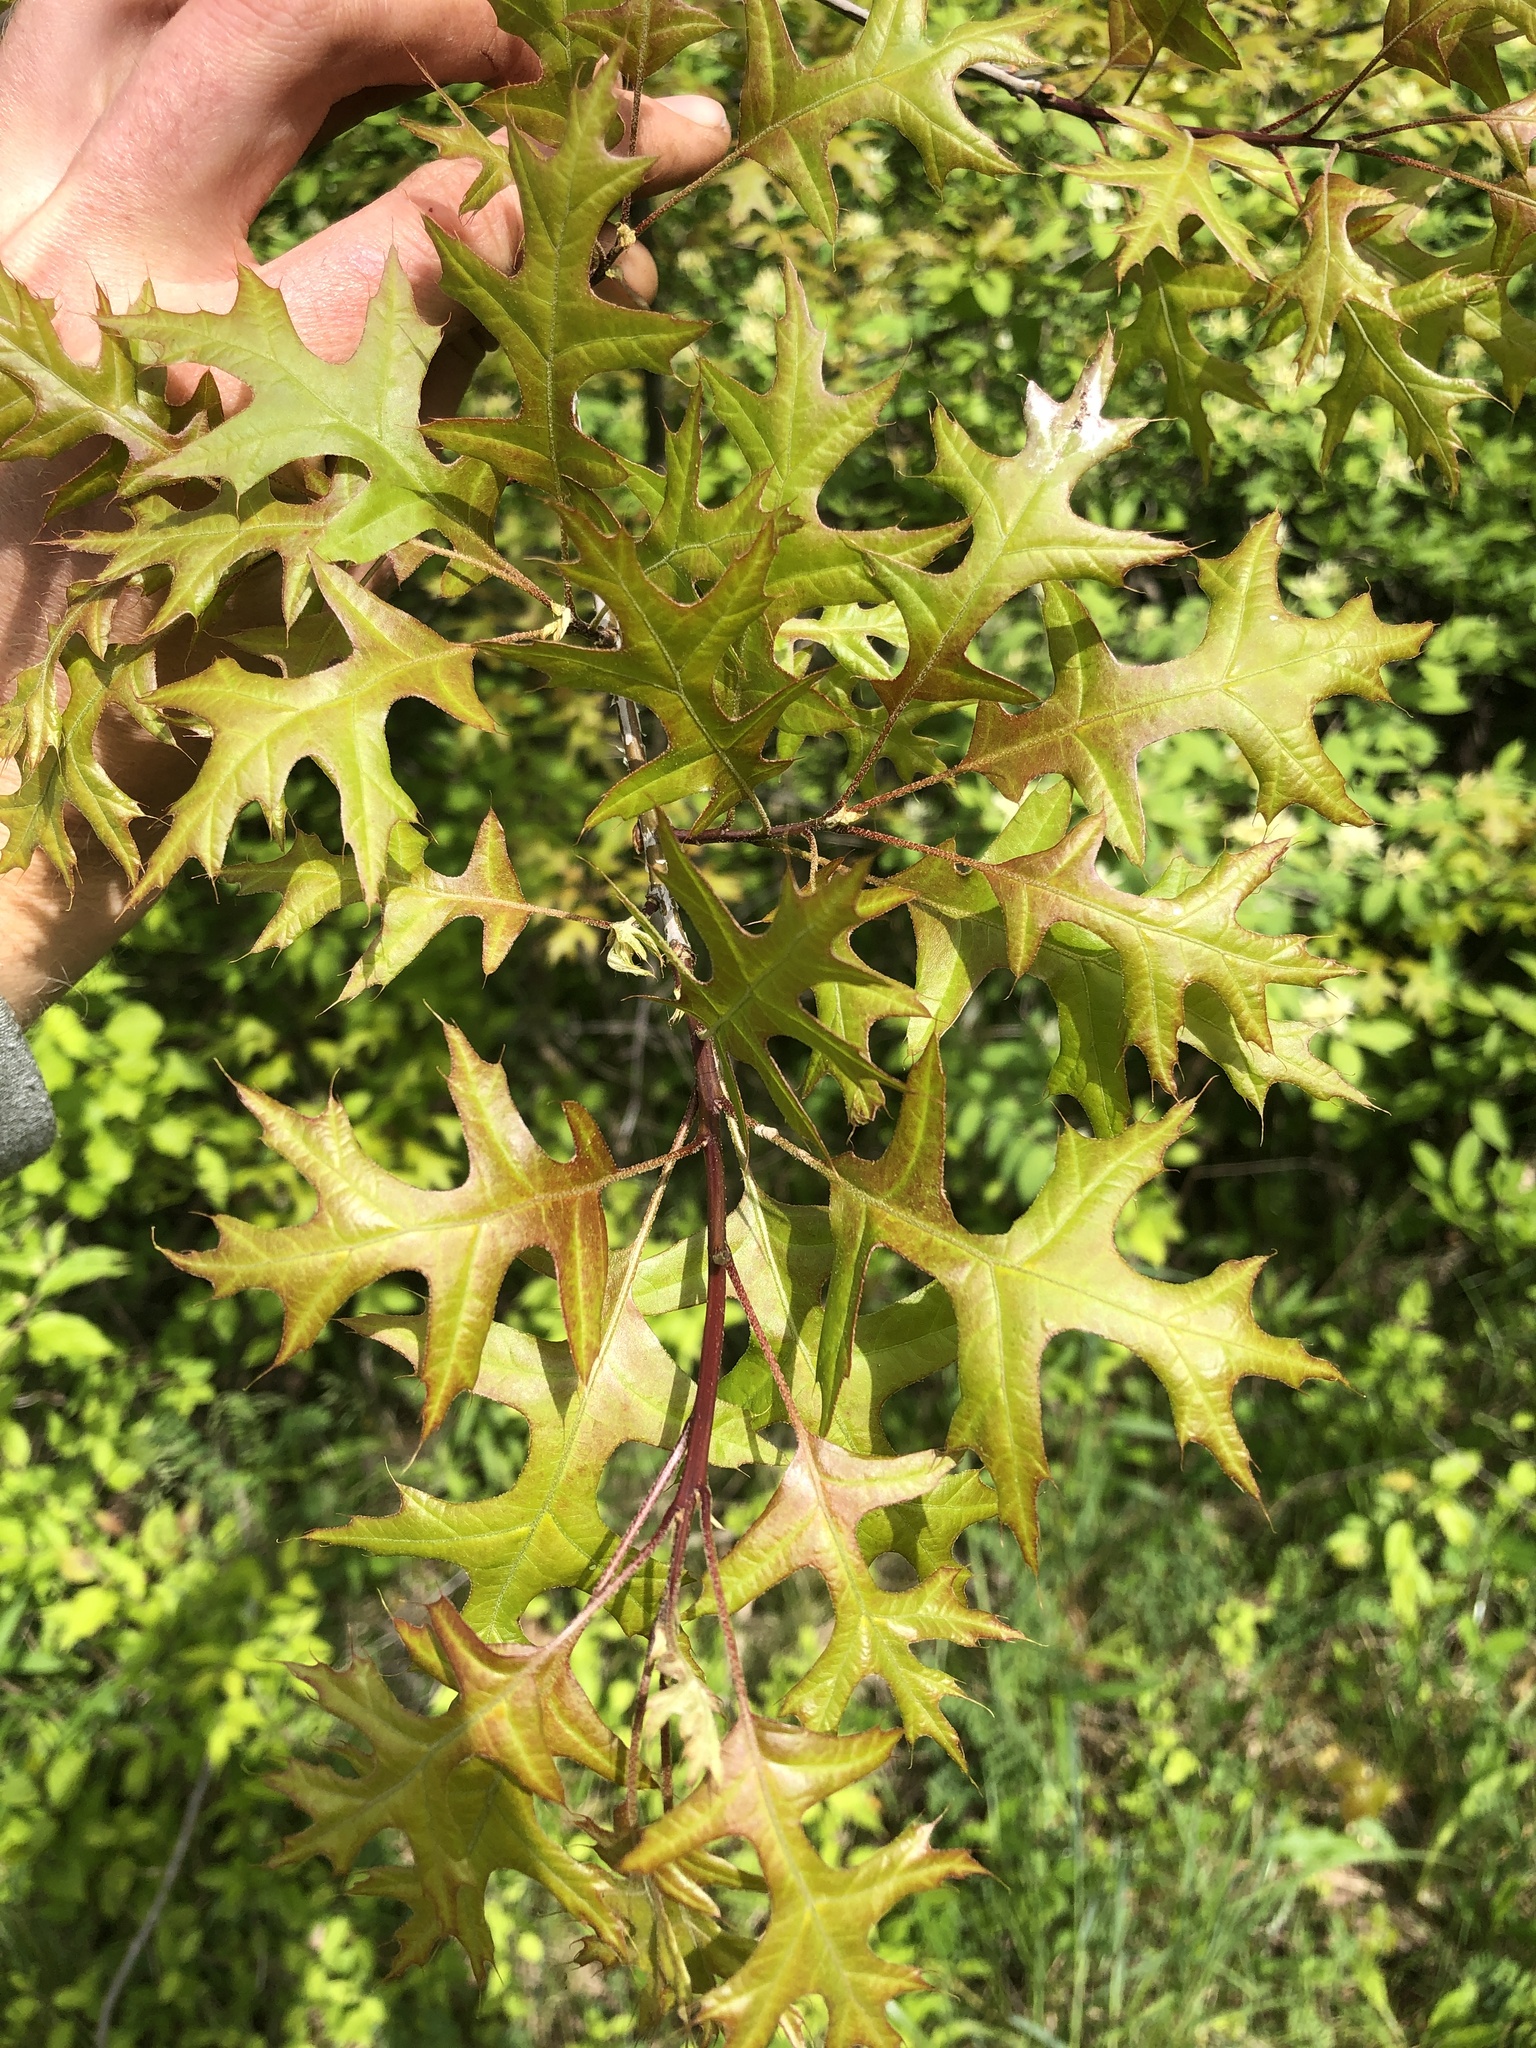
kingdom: Plantae
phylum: Tracheophyta
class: Magnoliopsida
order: Fagales
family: Fagaceae
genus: Quercus
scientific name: Quercus palustris
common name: Pin oak
